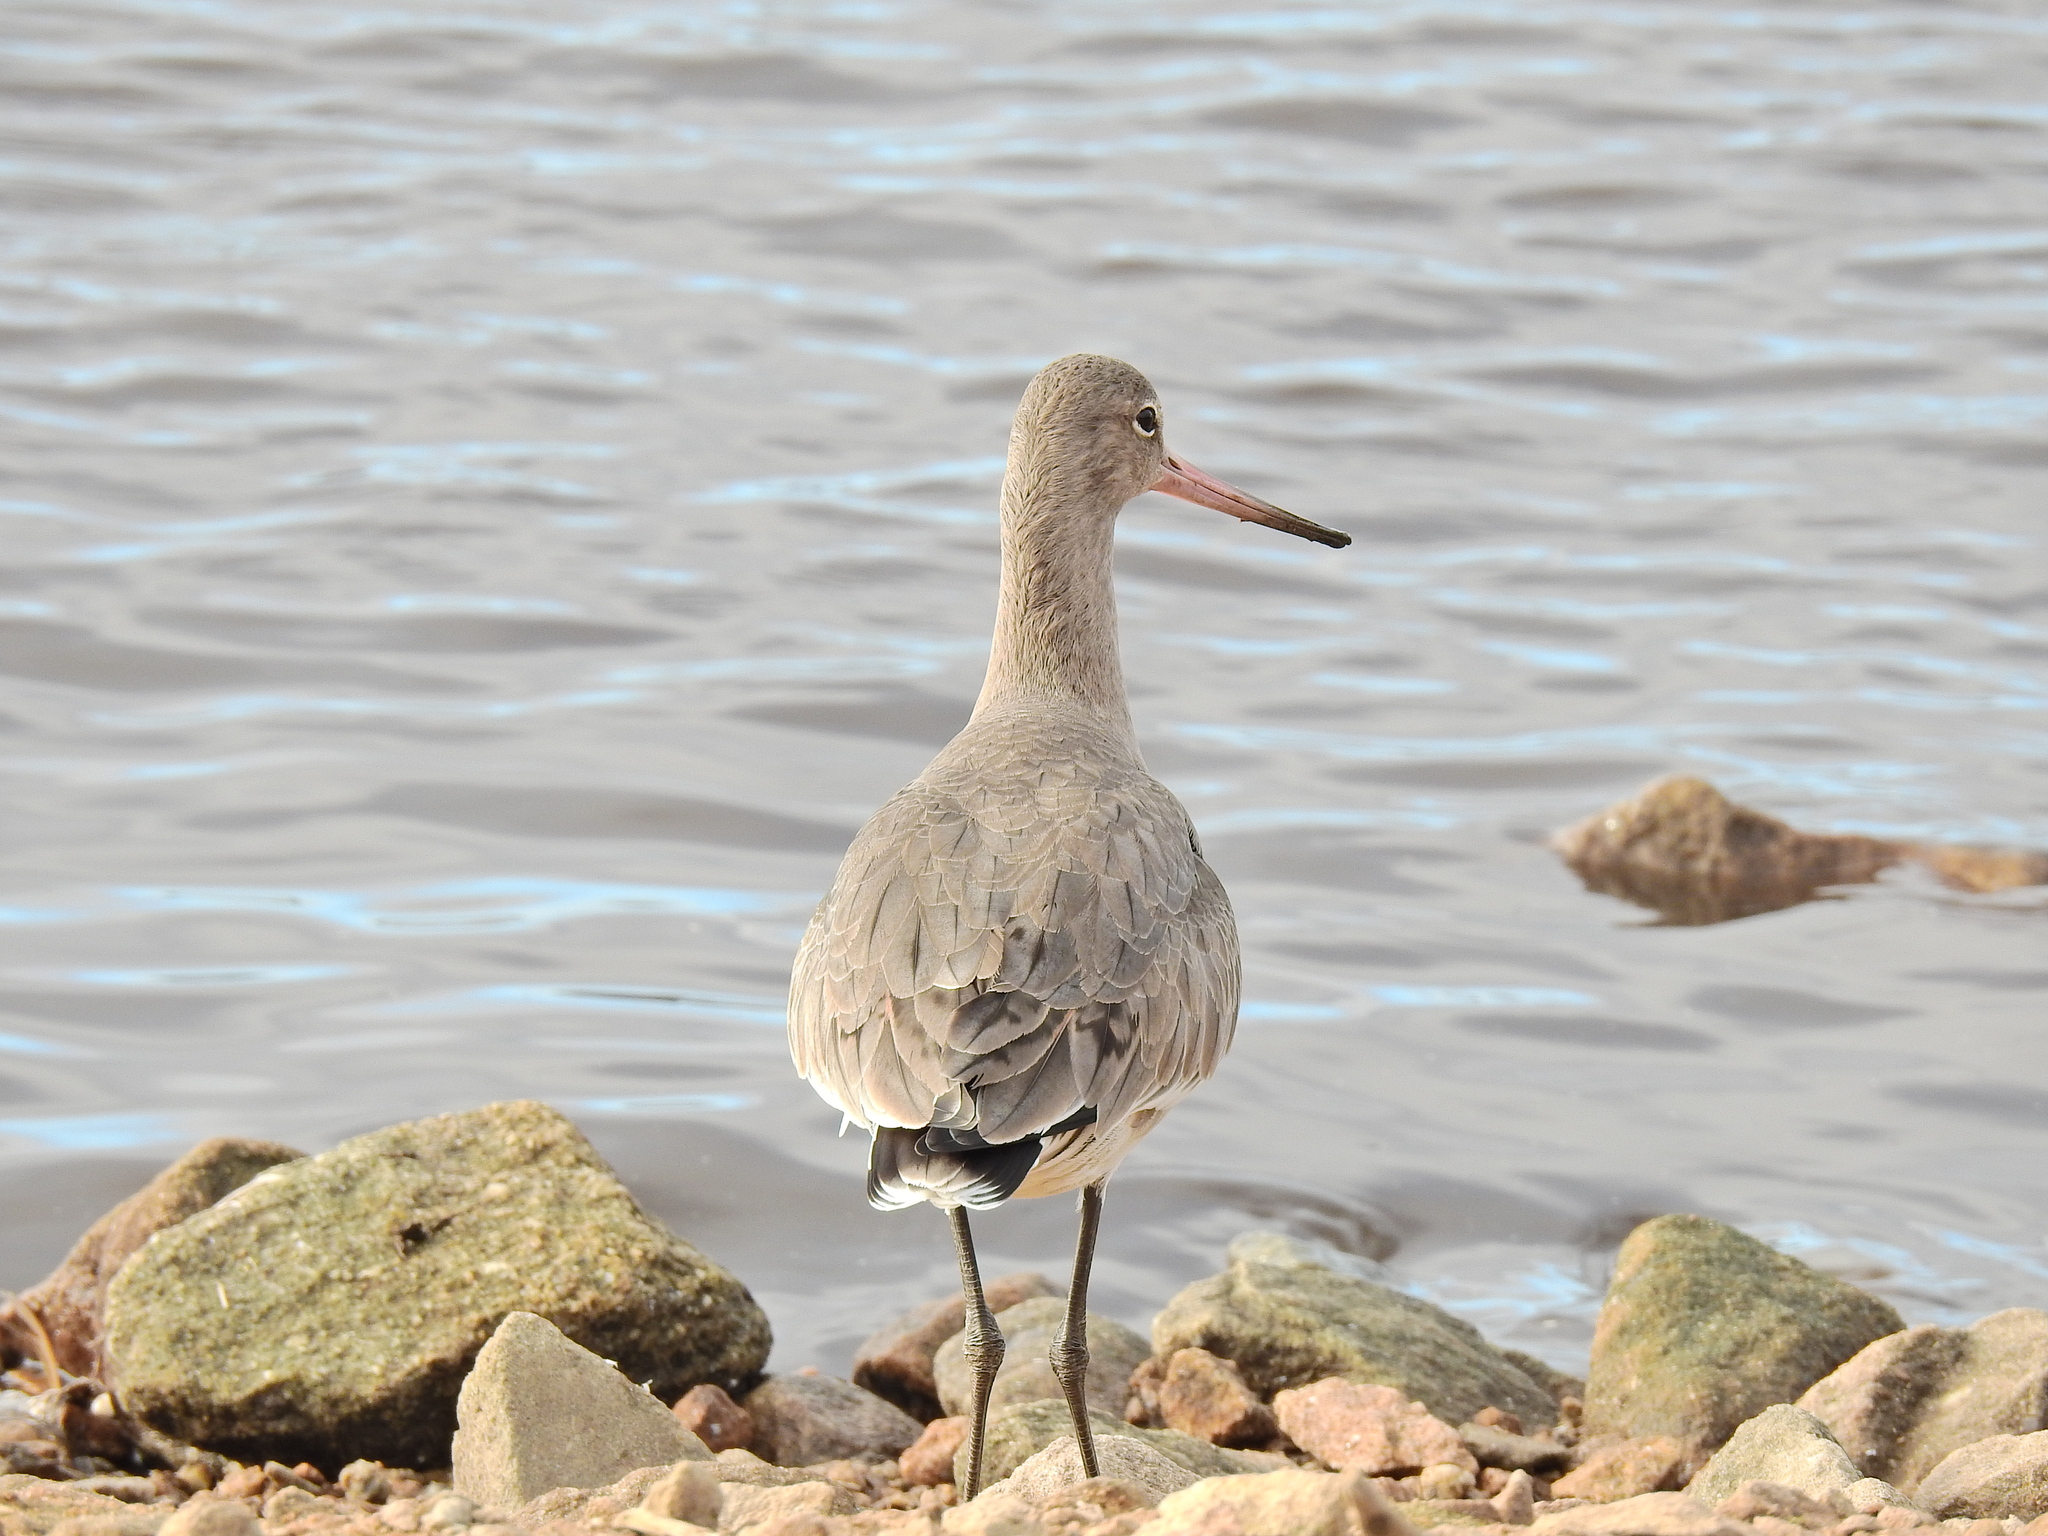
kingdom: Animalia
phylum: Chordata
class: Aves
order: Charadriiformes
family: Scolopacidae
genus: Limosa
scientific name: Limosa limosa
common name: Black-tailed godwit
